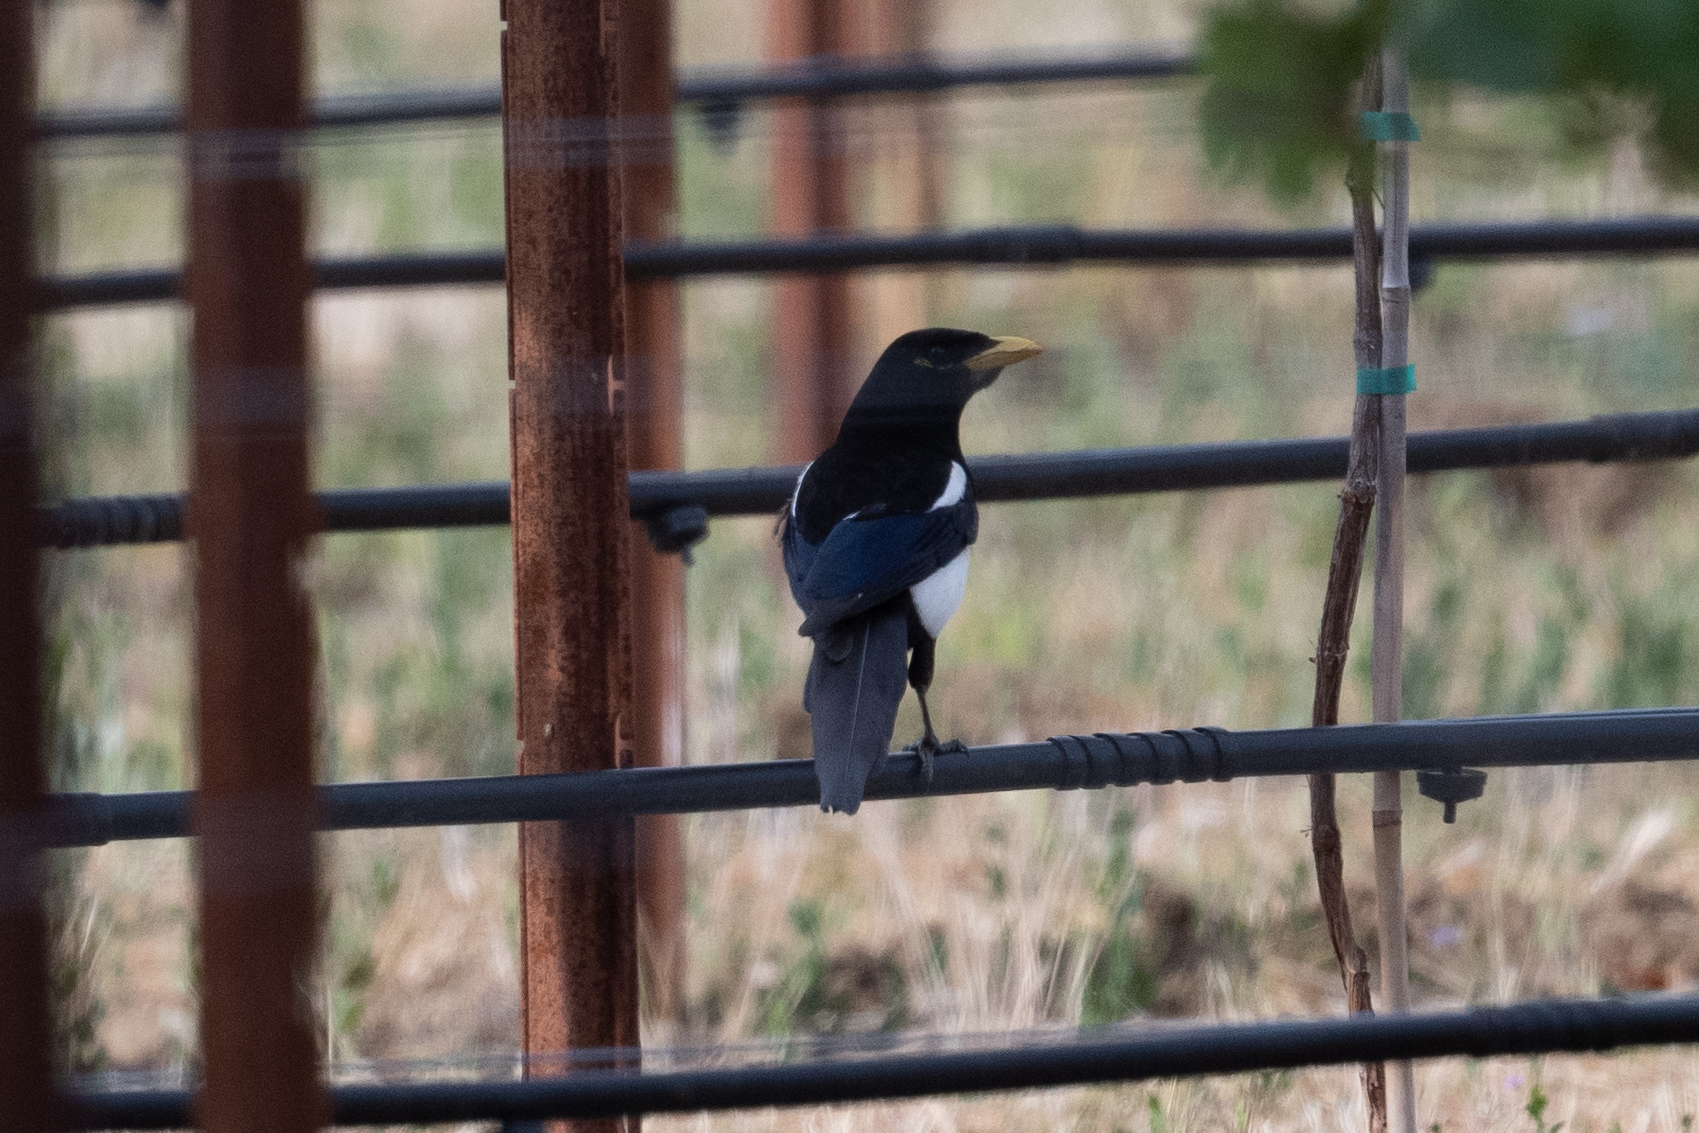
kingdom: Animalia
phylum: Chordata
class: Aves
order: Passeriformes
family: Corvidae
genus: Pica
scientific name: Pica nuttalli
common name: Yellow-billed magpie
